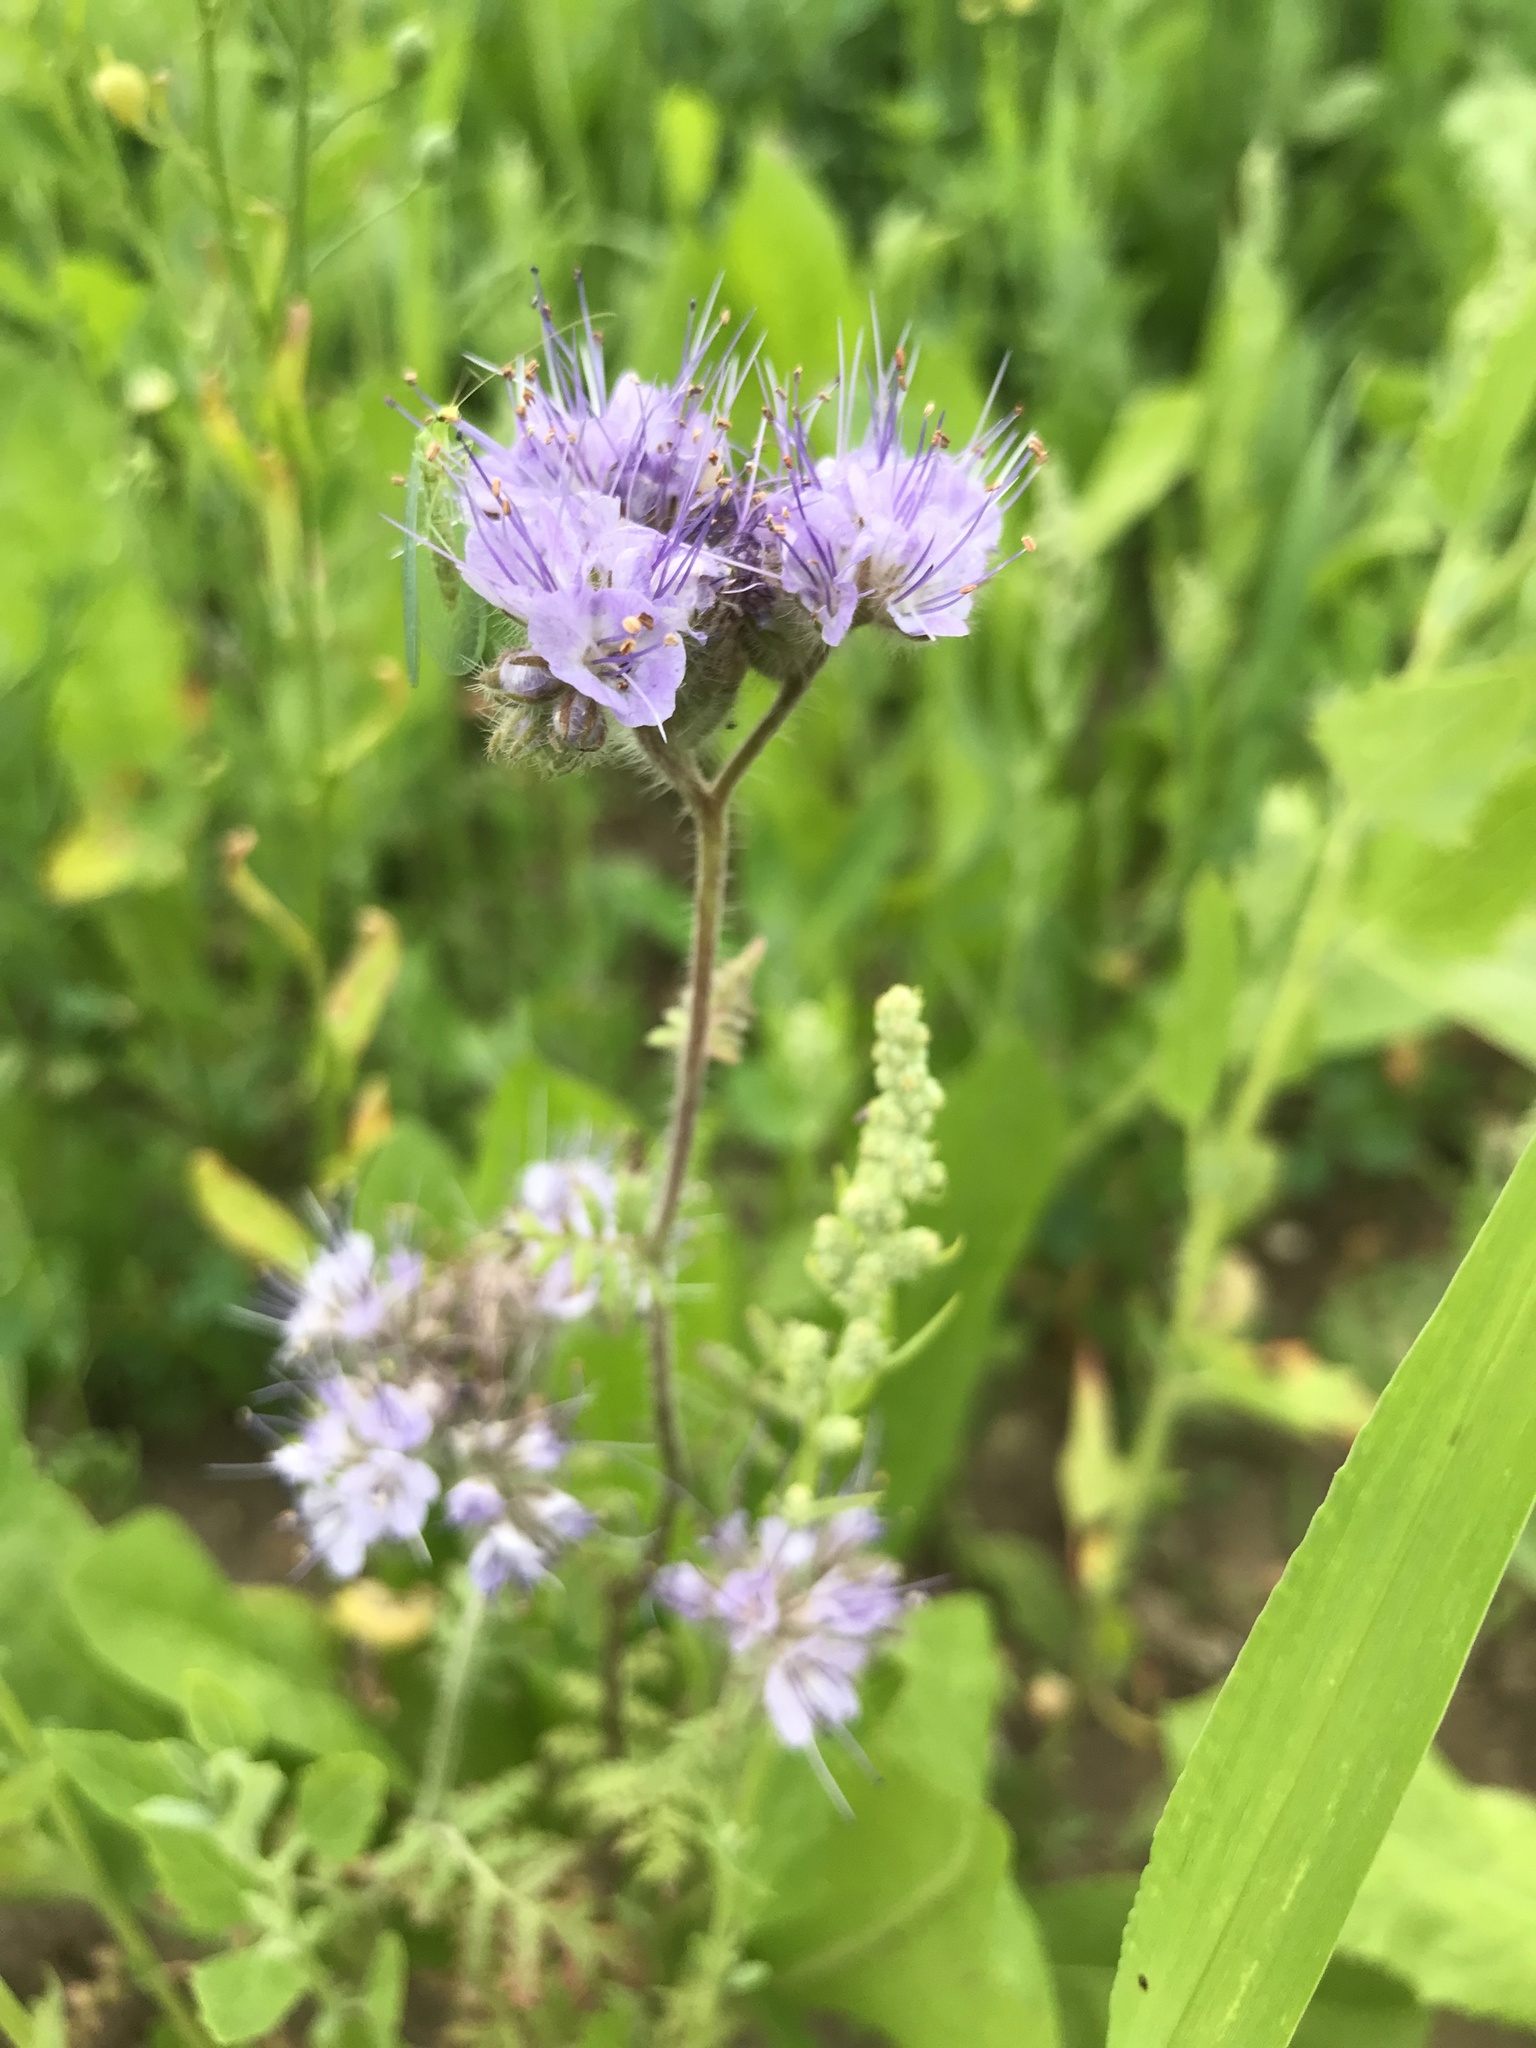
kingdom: Plantae
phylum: Tracheophyta
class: Magnoliopsida
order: Boraginales
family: Hydrophyllaceae
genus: Phacelia
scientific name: Phacelia tanacetifolia
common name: Phacelia
